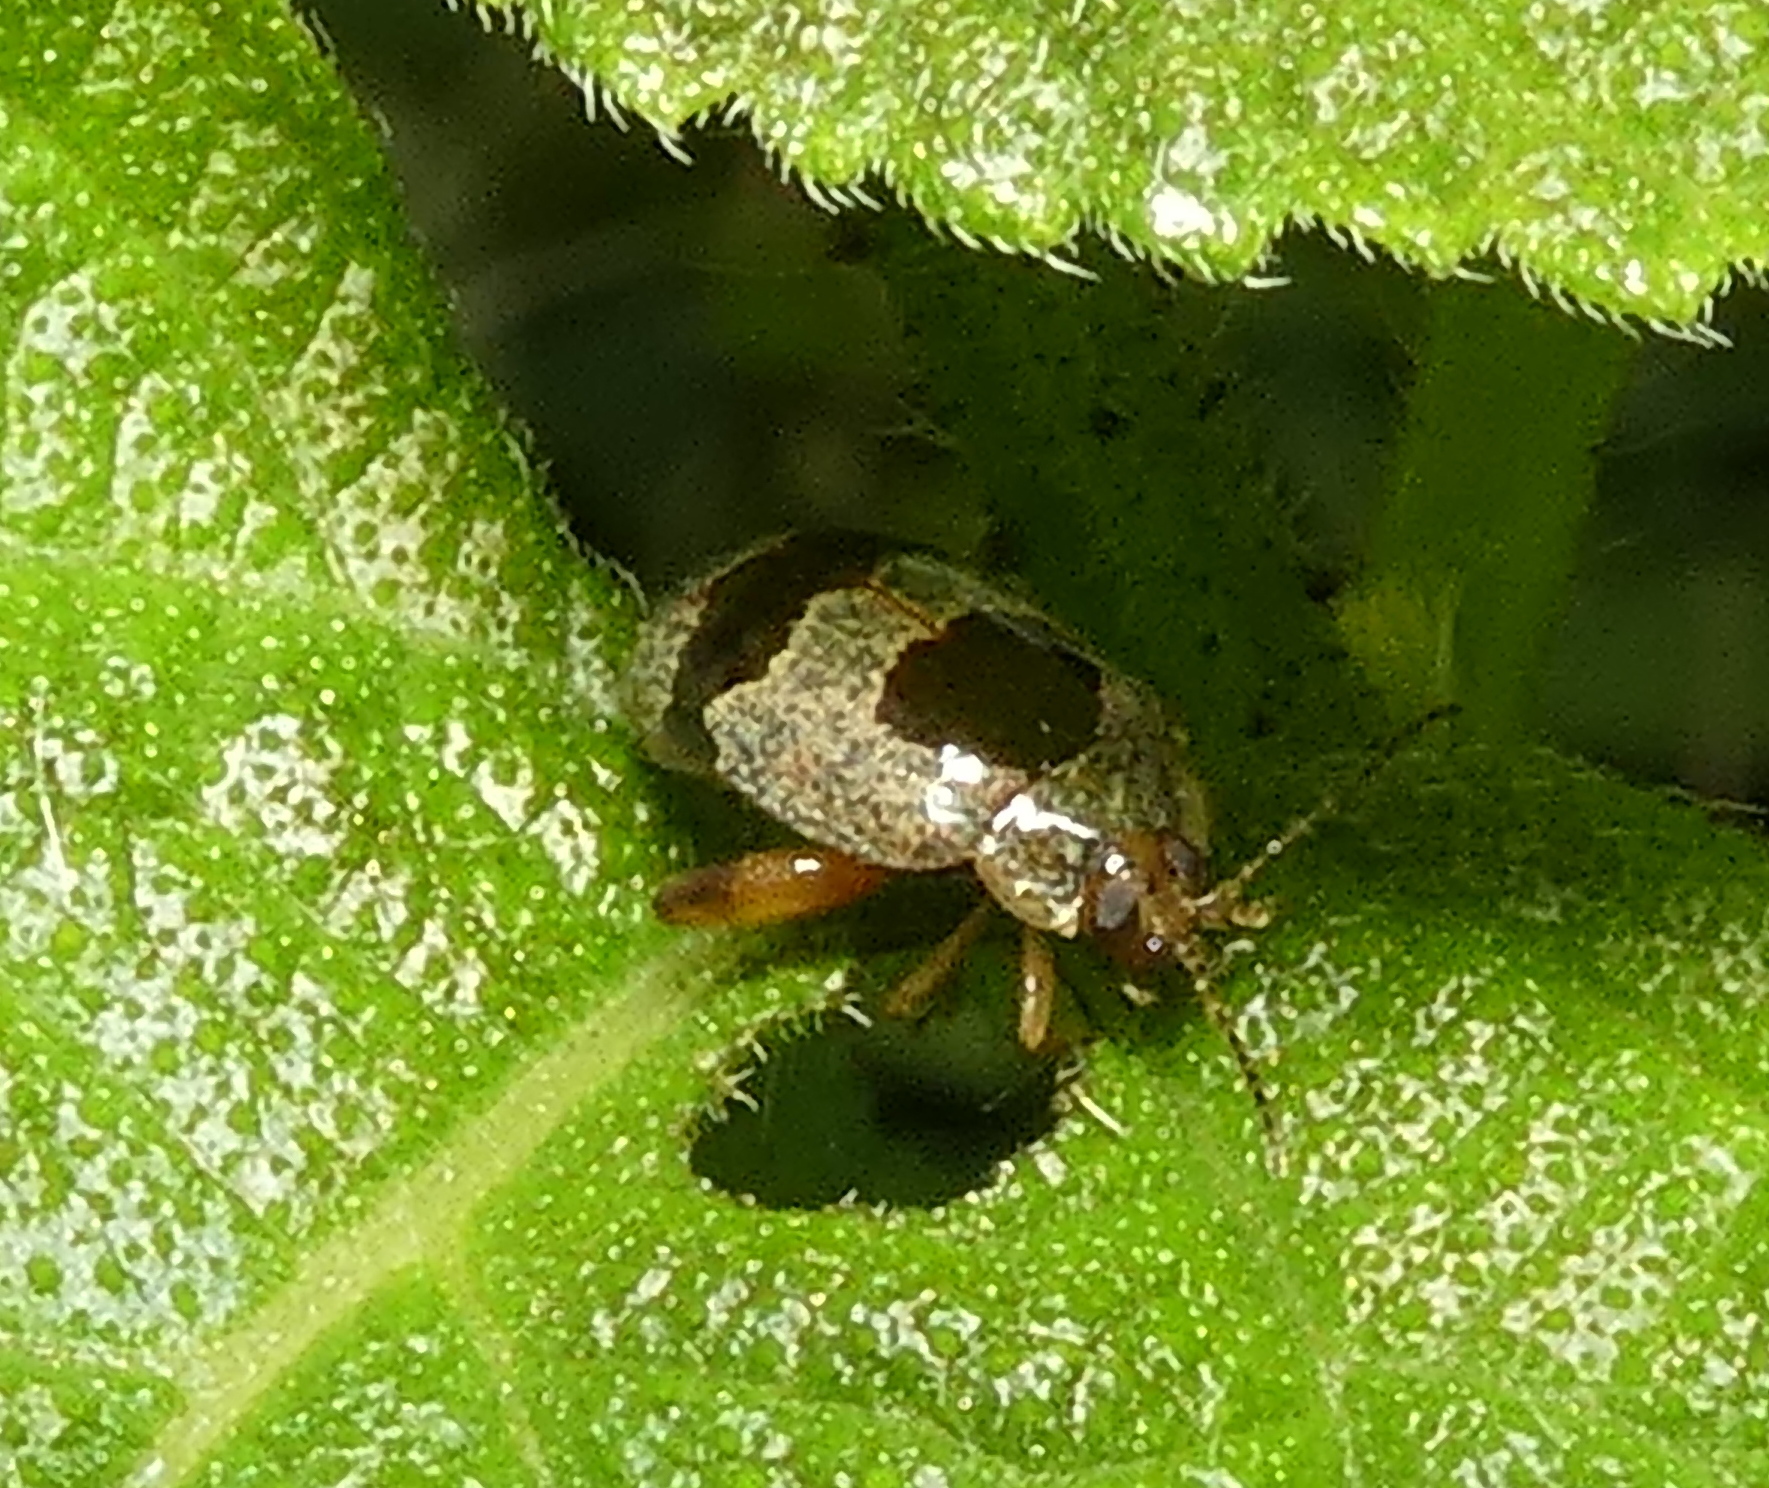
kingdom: Animalia
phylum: Arthropoda
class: Insecta
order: Coleoptera
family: Chrysomelidae
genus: Alagoasa
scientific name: Alagoasa
